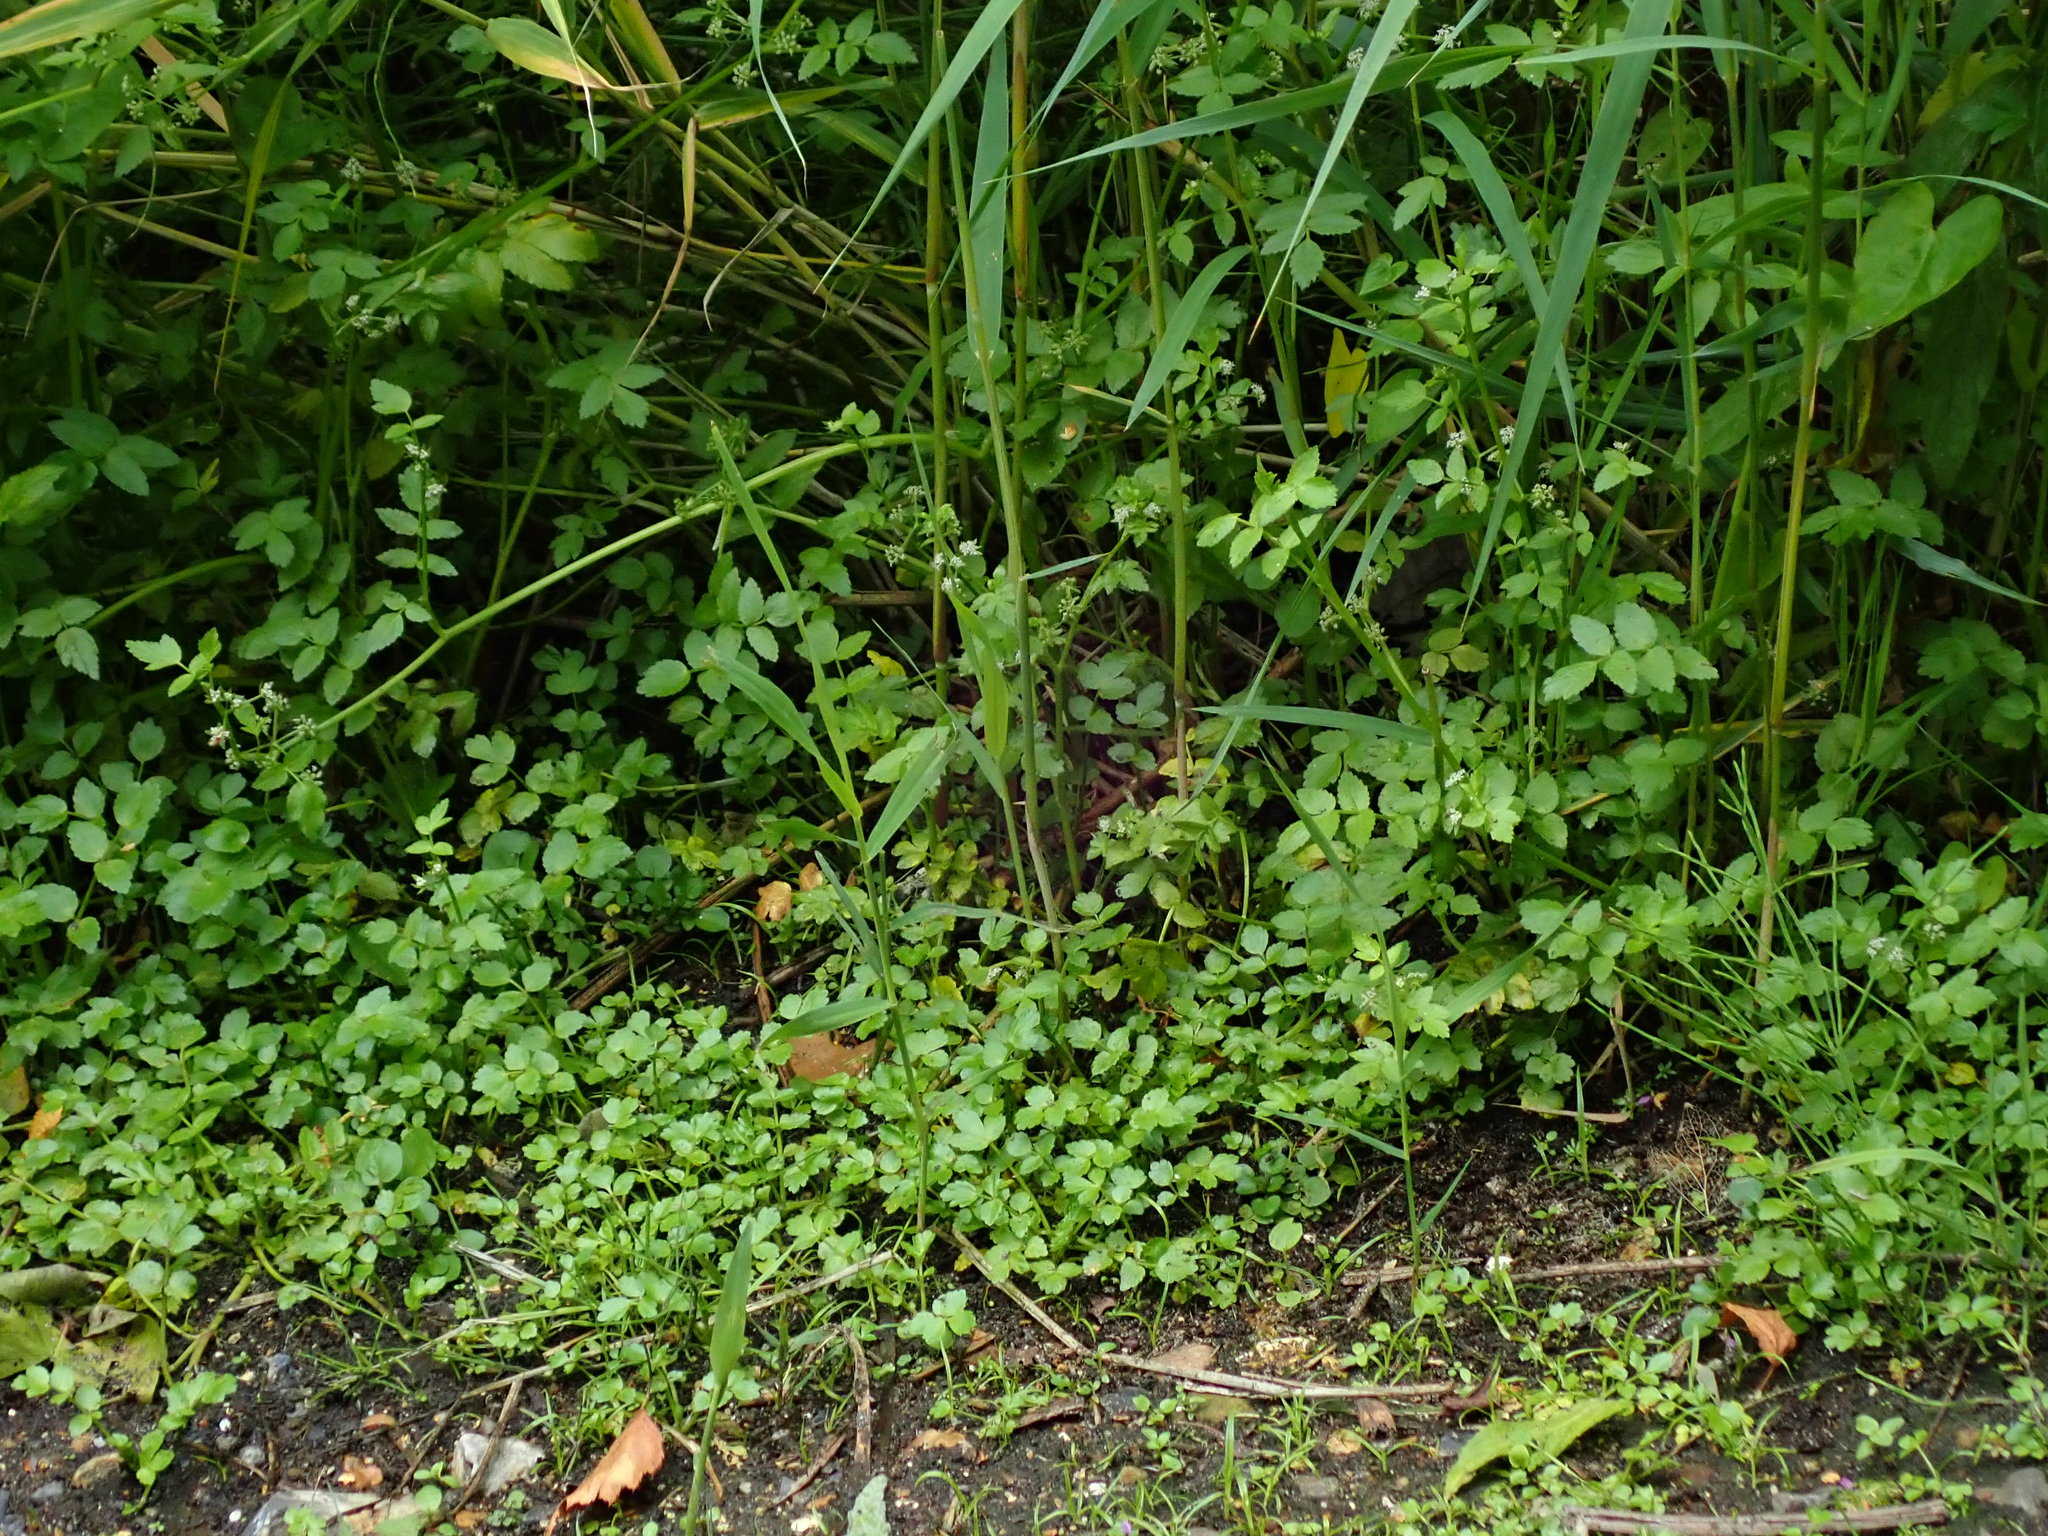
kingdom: Plantae
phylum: Tracheophyta
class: Magnoliopsida
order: Apiales
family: Apiaceae
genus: Helosciadium
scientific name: Helosciadium nodiflorum
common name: Fool's-watercress
